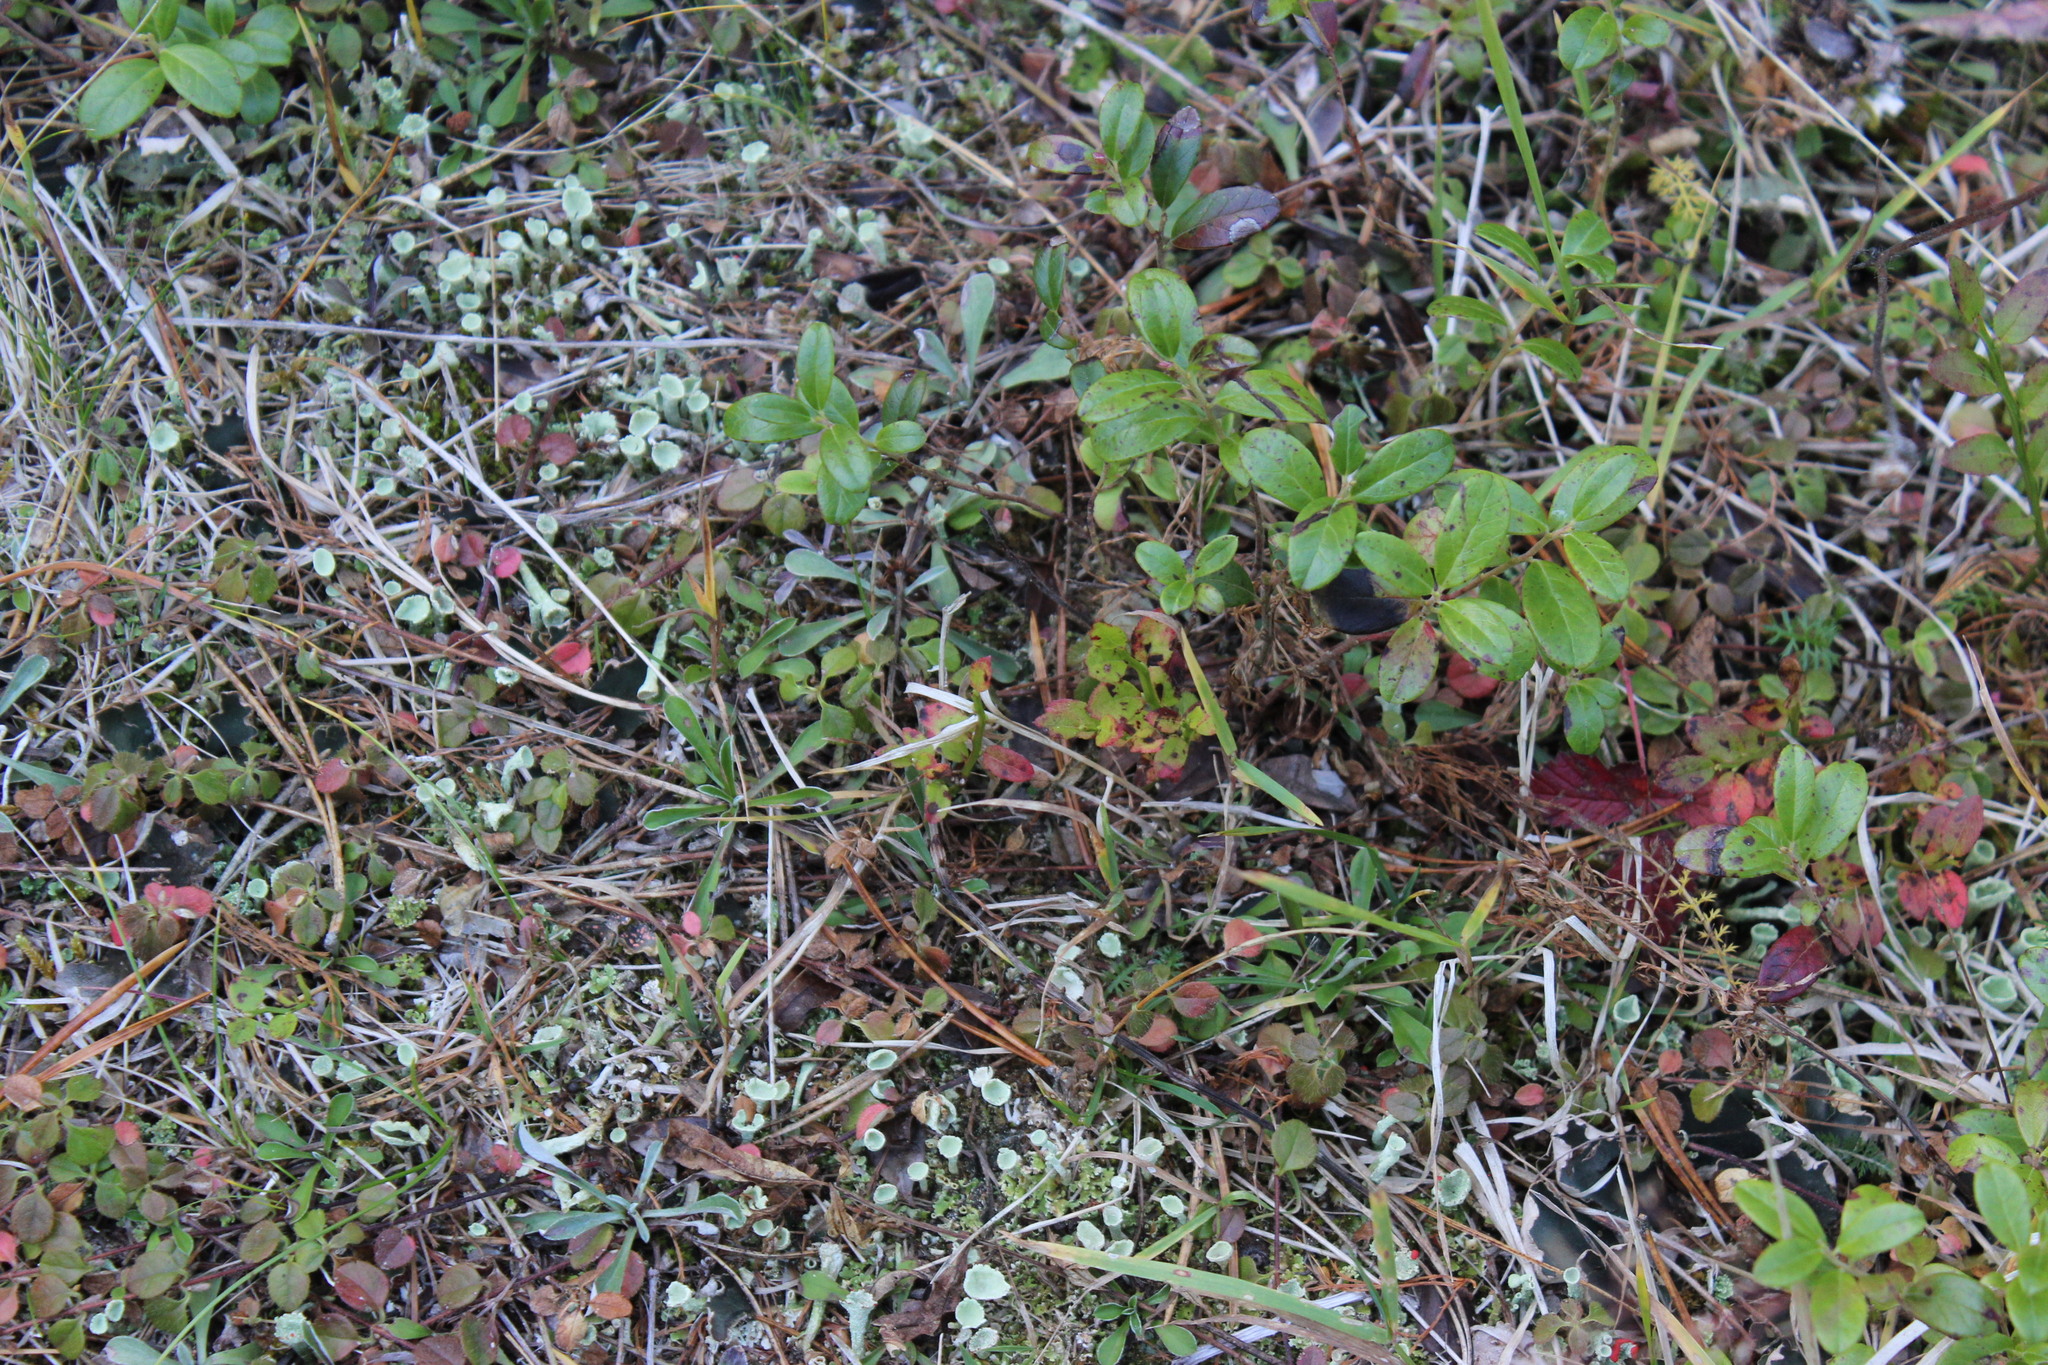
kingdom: Plantae
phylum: Tracheophyta
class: Magnoliopsida
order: Ericales
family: Ericaceae
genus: Vaccinium
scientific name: Vaccinium vitis-idaea
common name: Cowberry
